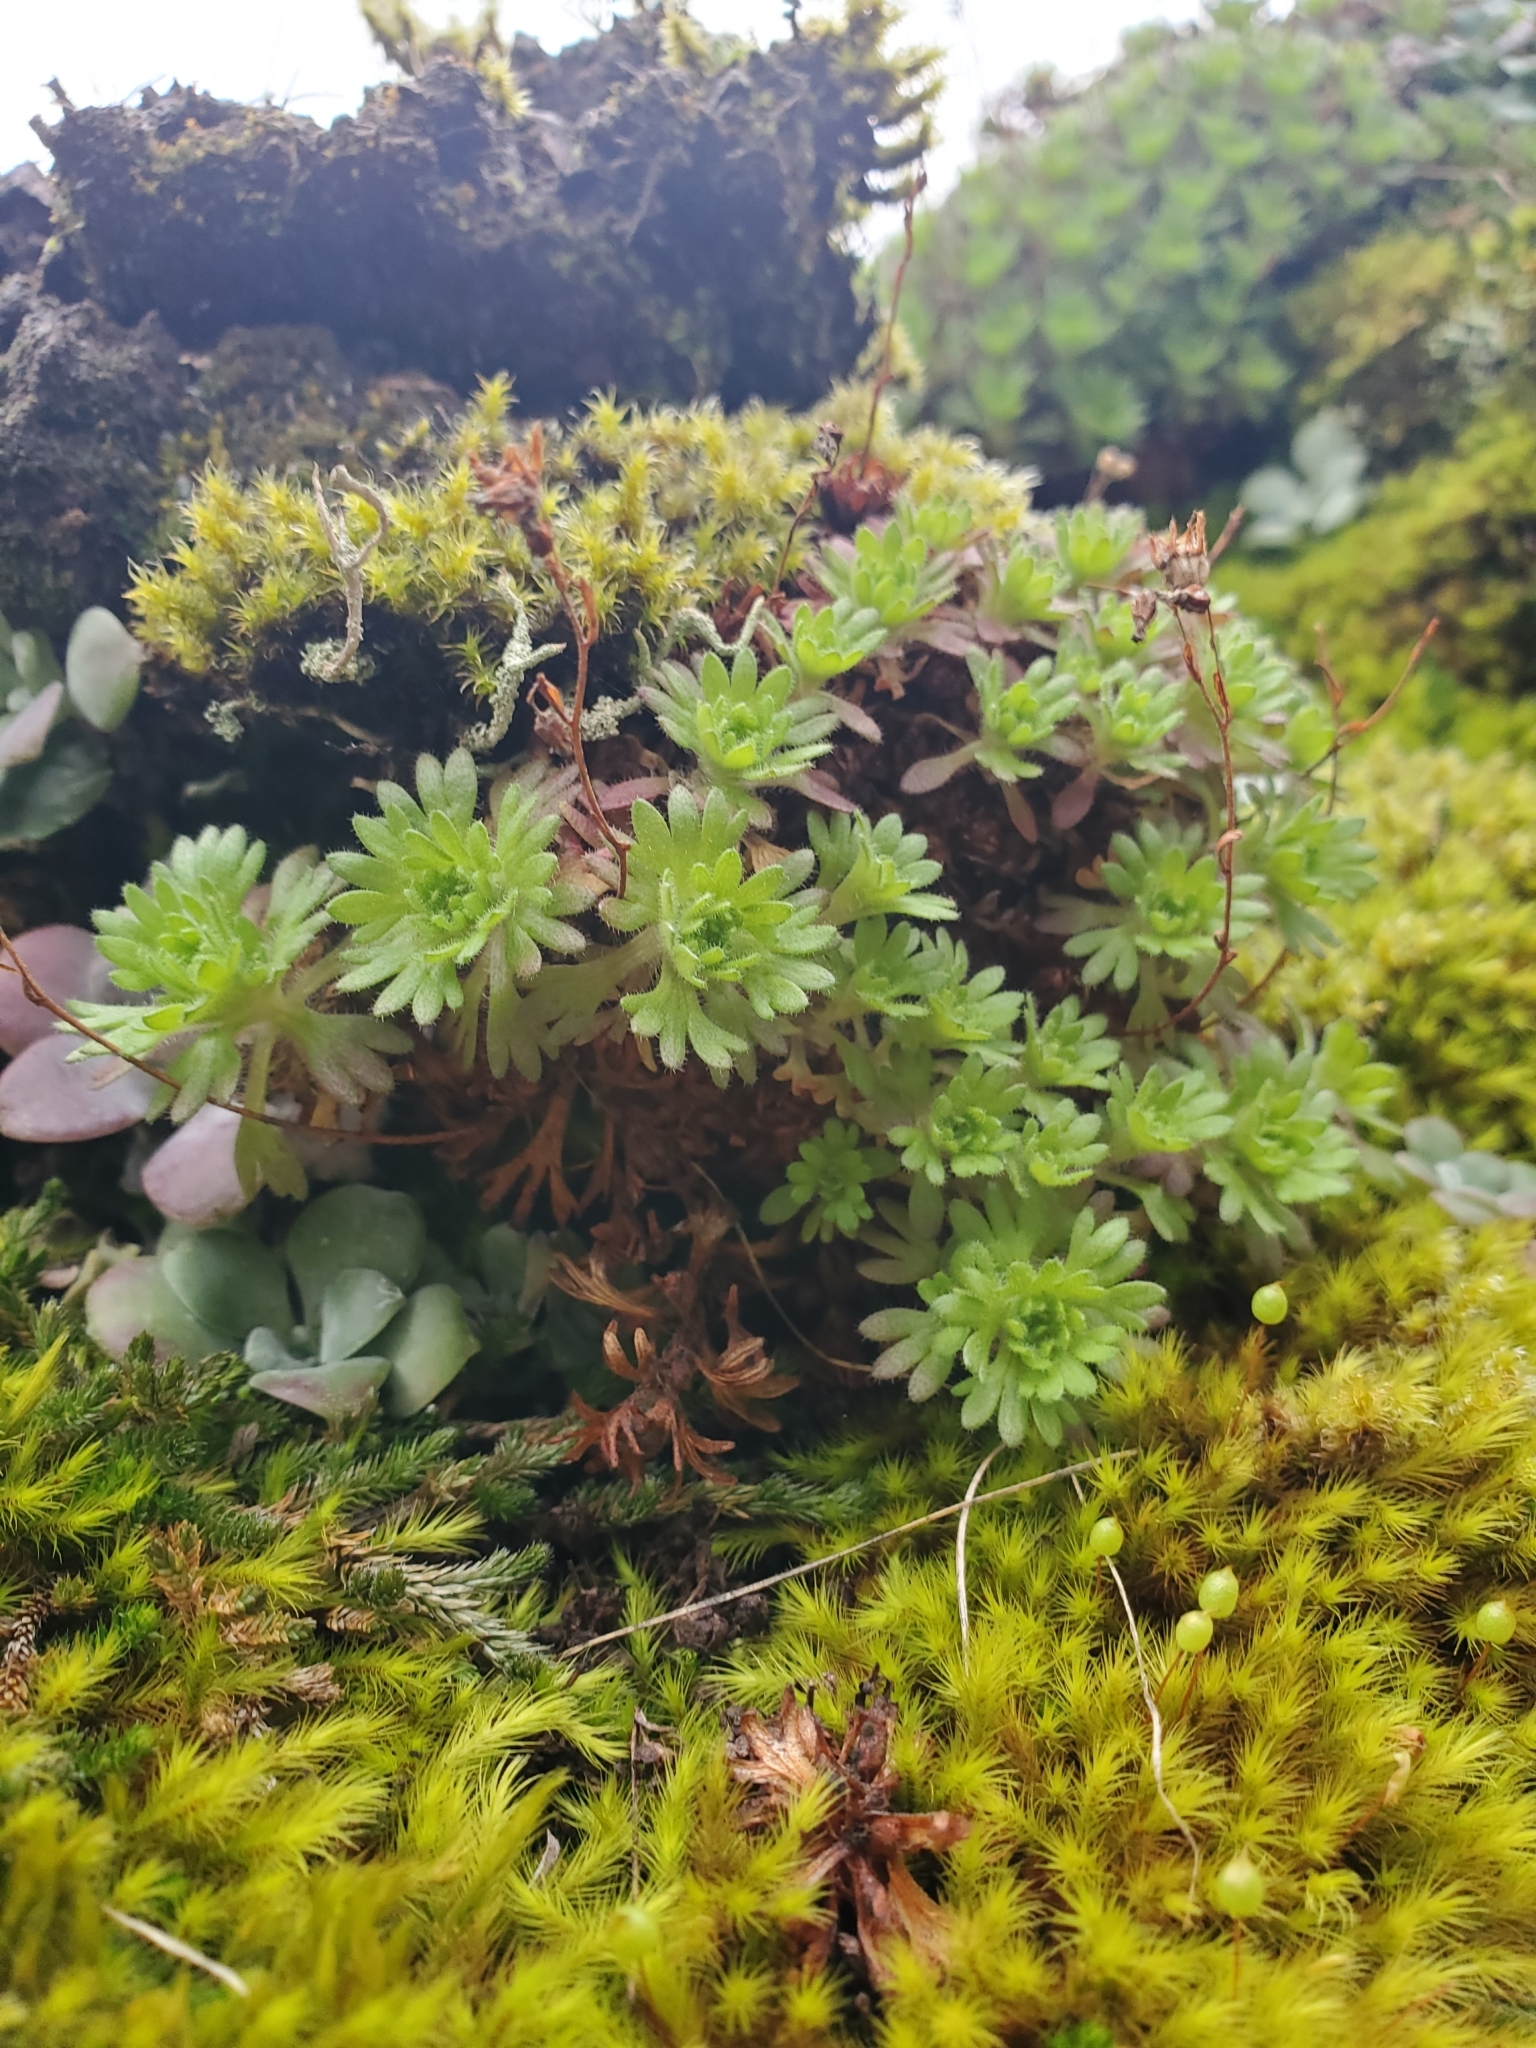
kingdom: Plantae
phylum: Tracheophyta
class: Magnoliopsida
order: Saxifragales
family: Saxifragaceae
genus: Saxifraga
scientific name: Saxifraga cespitosa
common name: Tufted saxifrage
